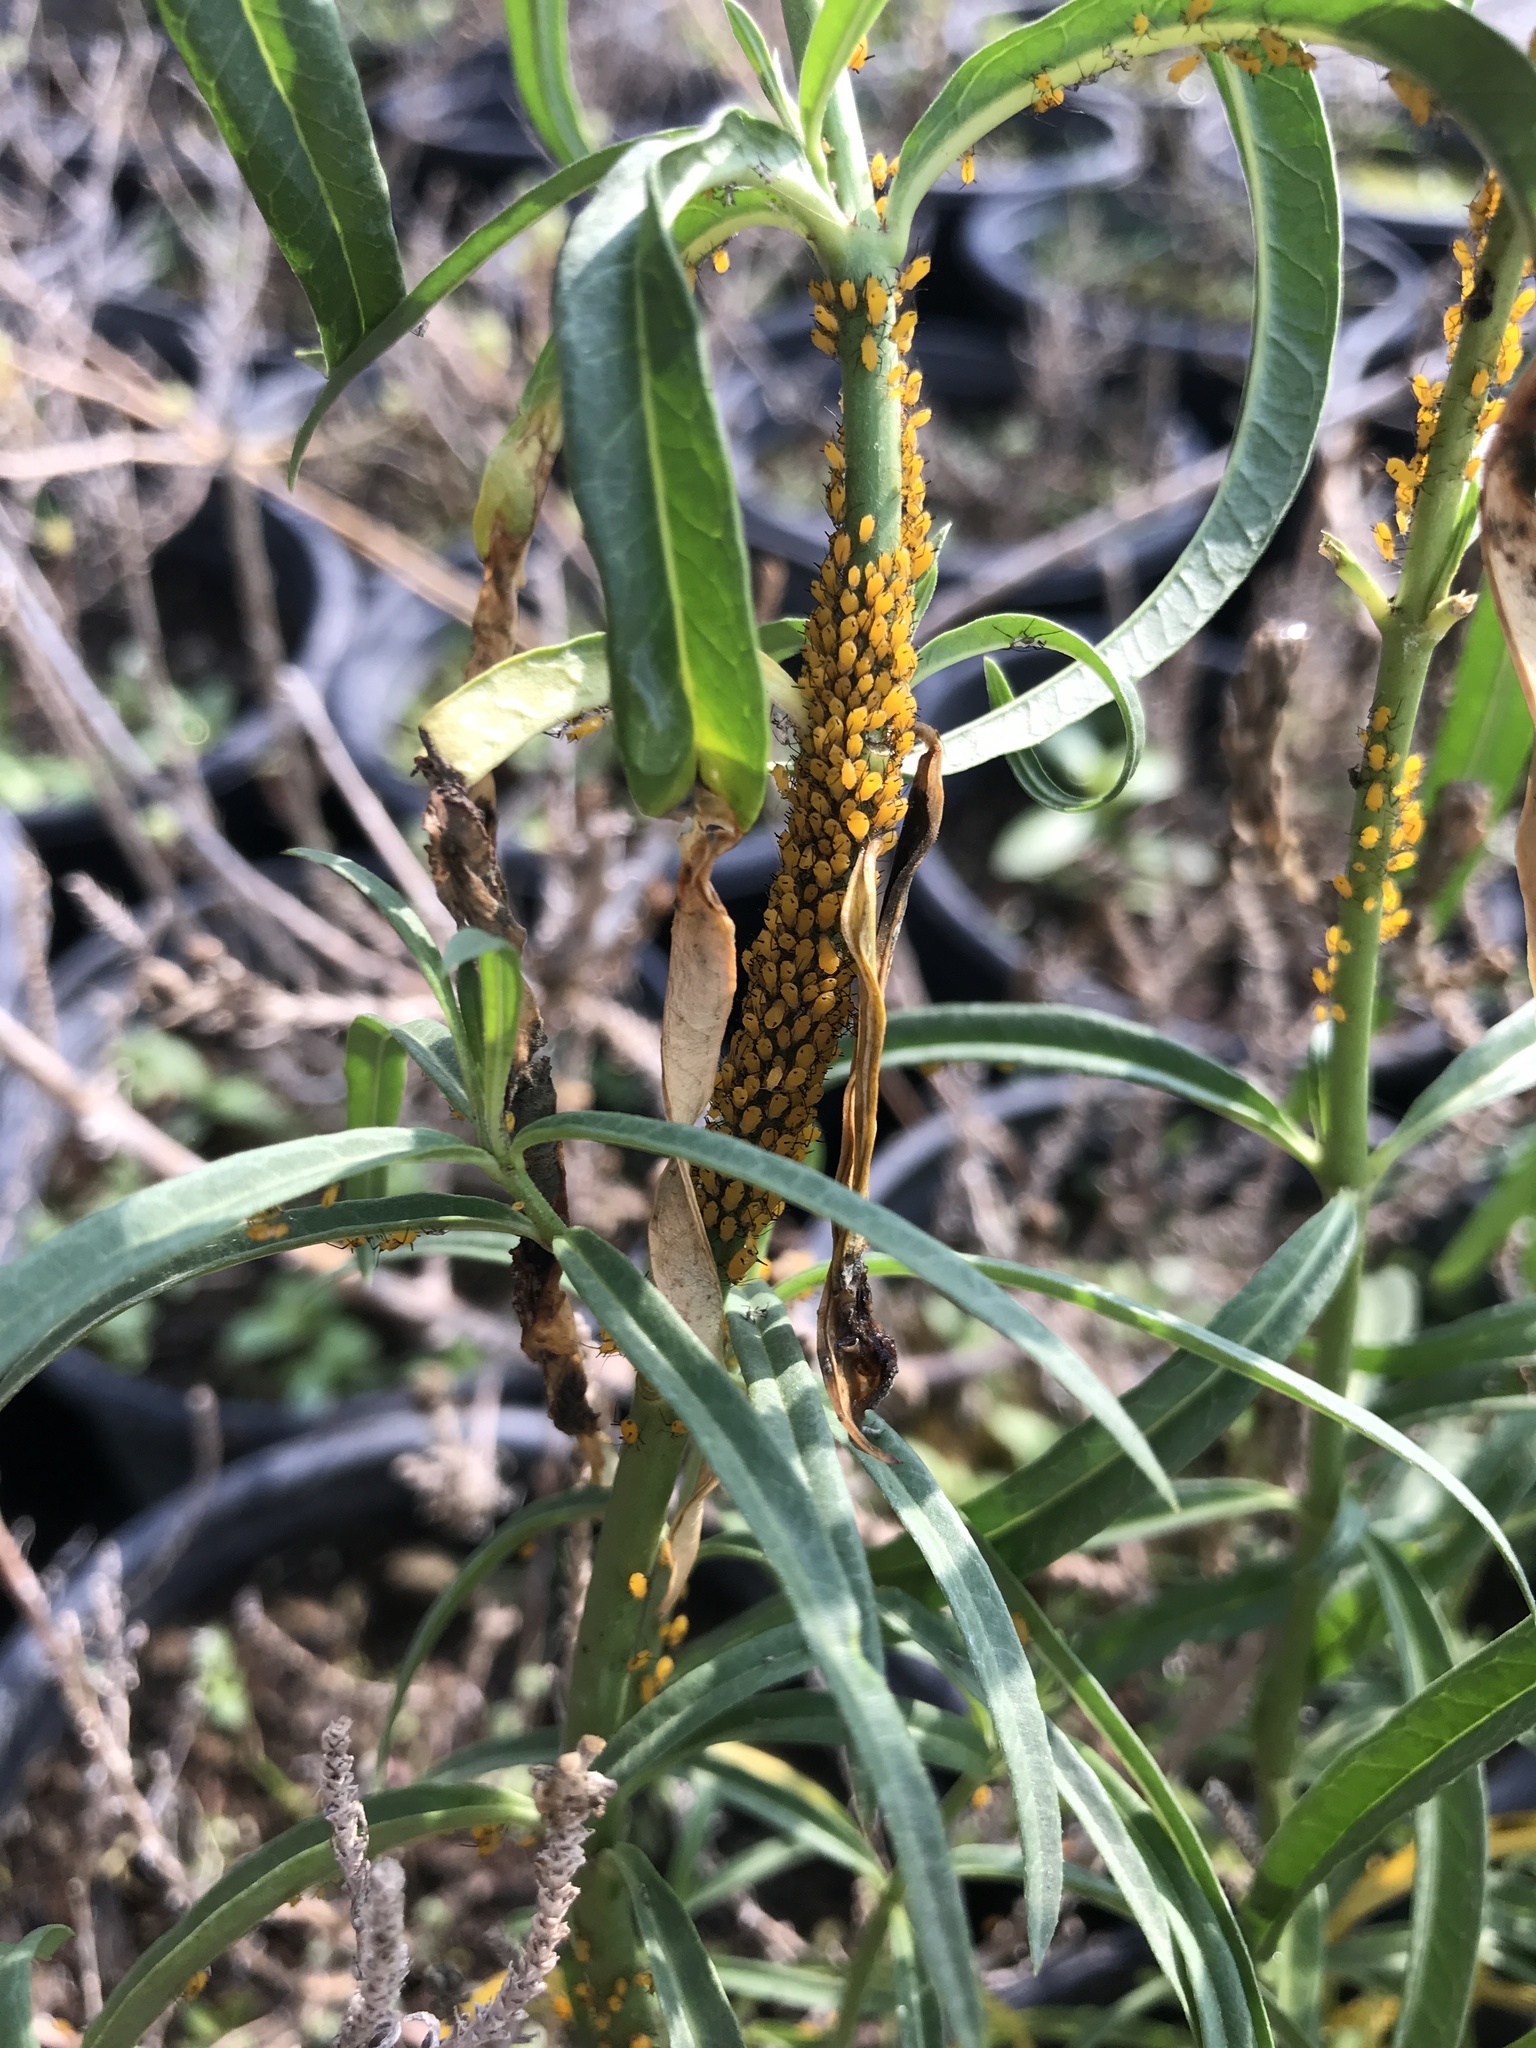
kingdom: Animalia
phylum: Arthropoda
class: Insecta
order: Hemiptera
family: Aphididae
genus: Aphis
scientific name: Aphis nerii
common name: Oleander aphid
